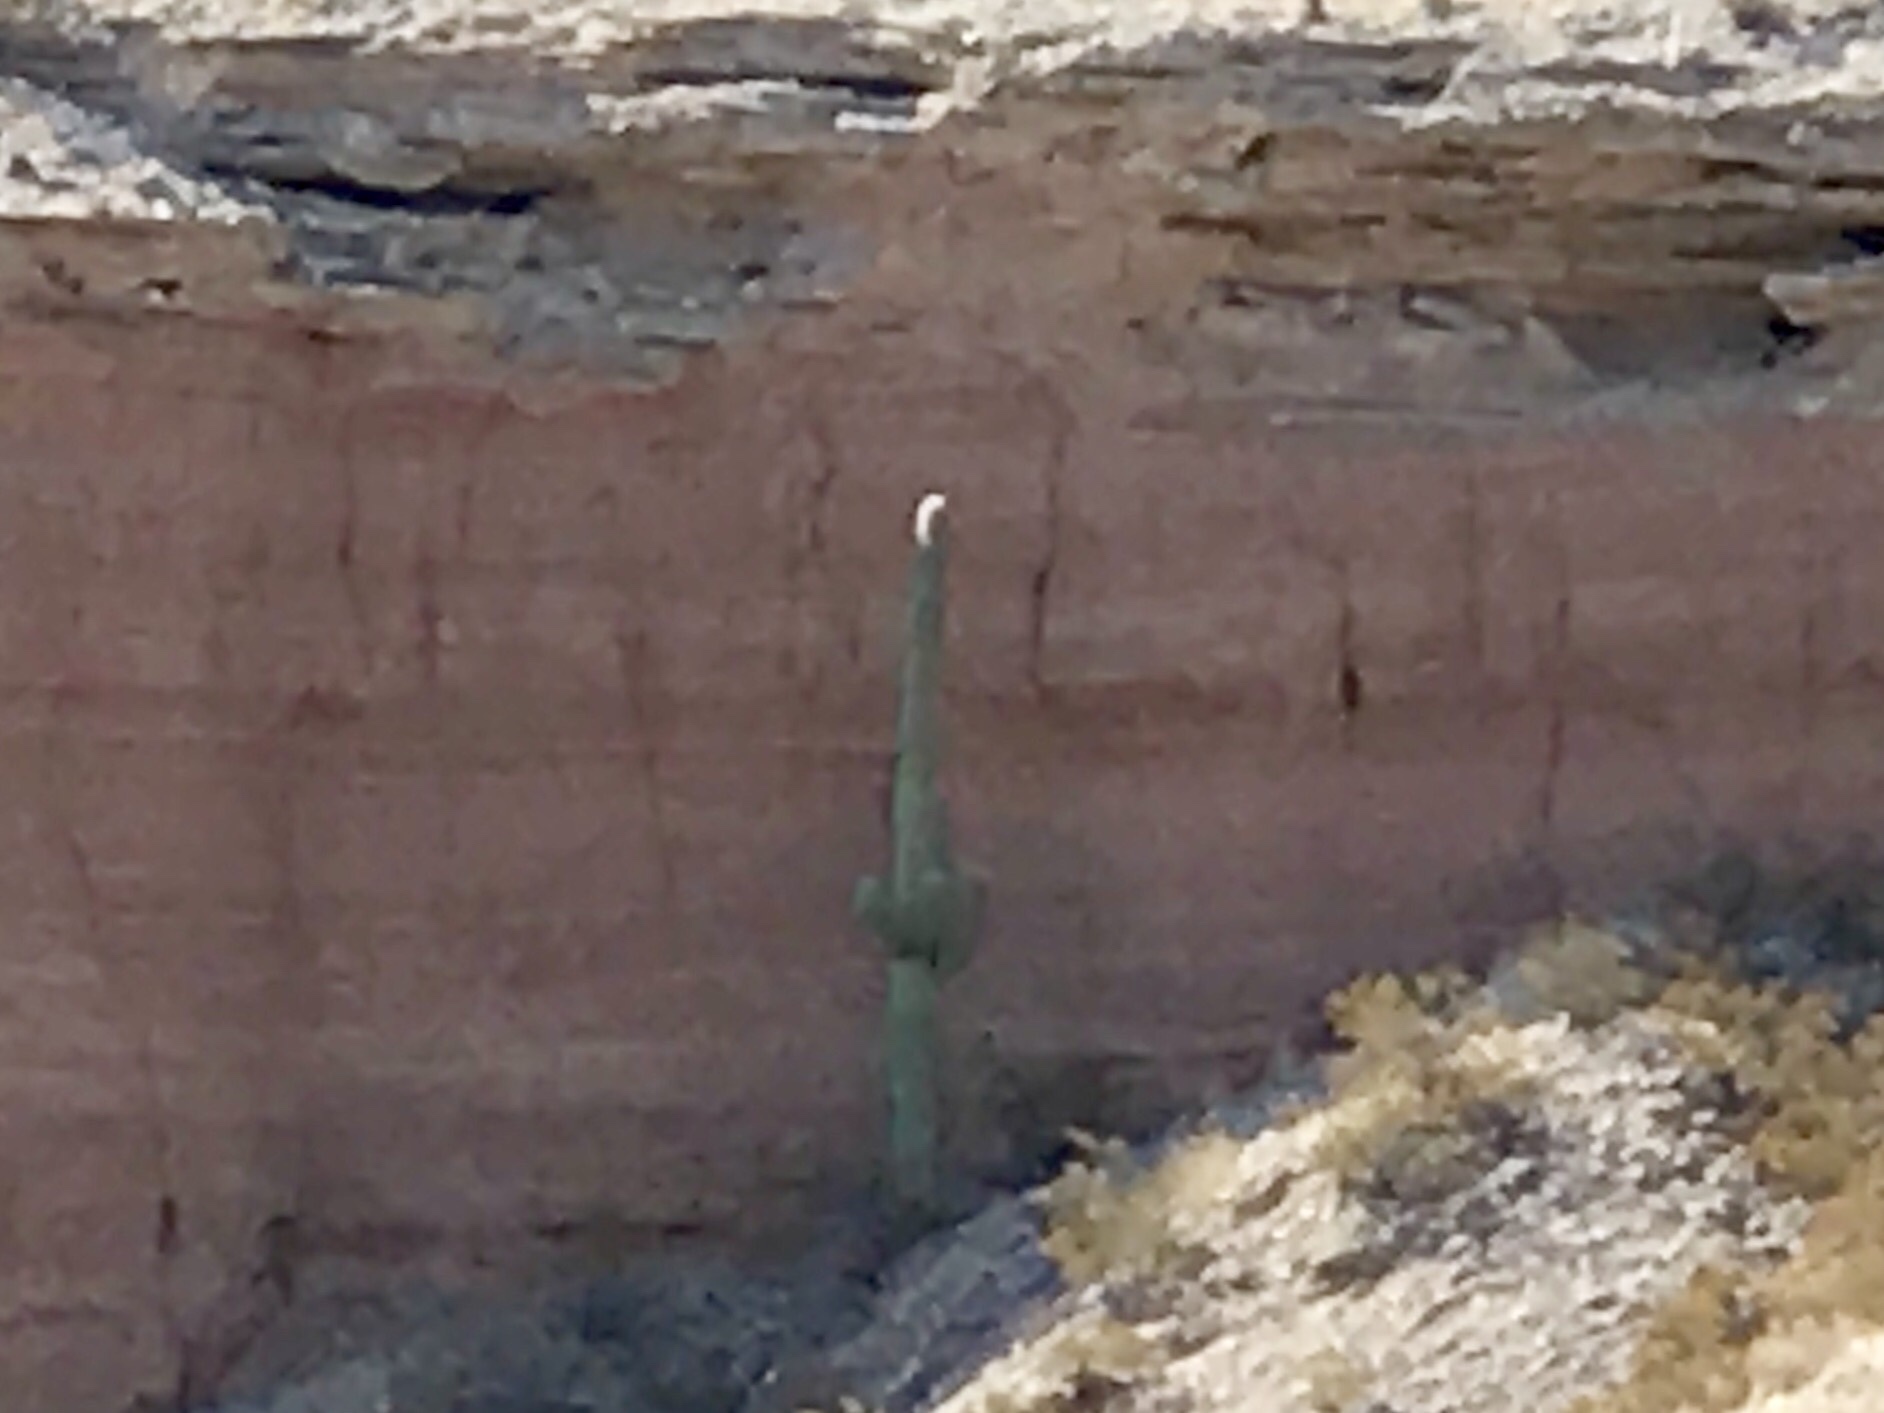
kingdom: Plantae
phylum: Tracheophyta
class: Magnoliopsida
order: Caryophyllales
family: Cactaceae
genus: Carnegiea
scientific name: Carnegiea gigantea
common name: Saguaro
